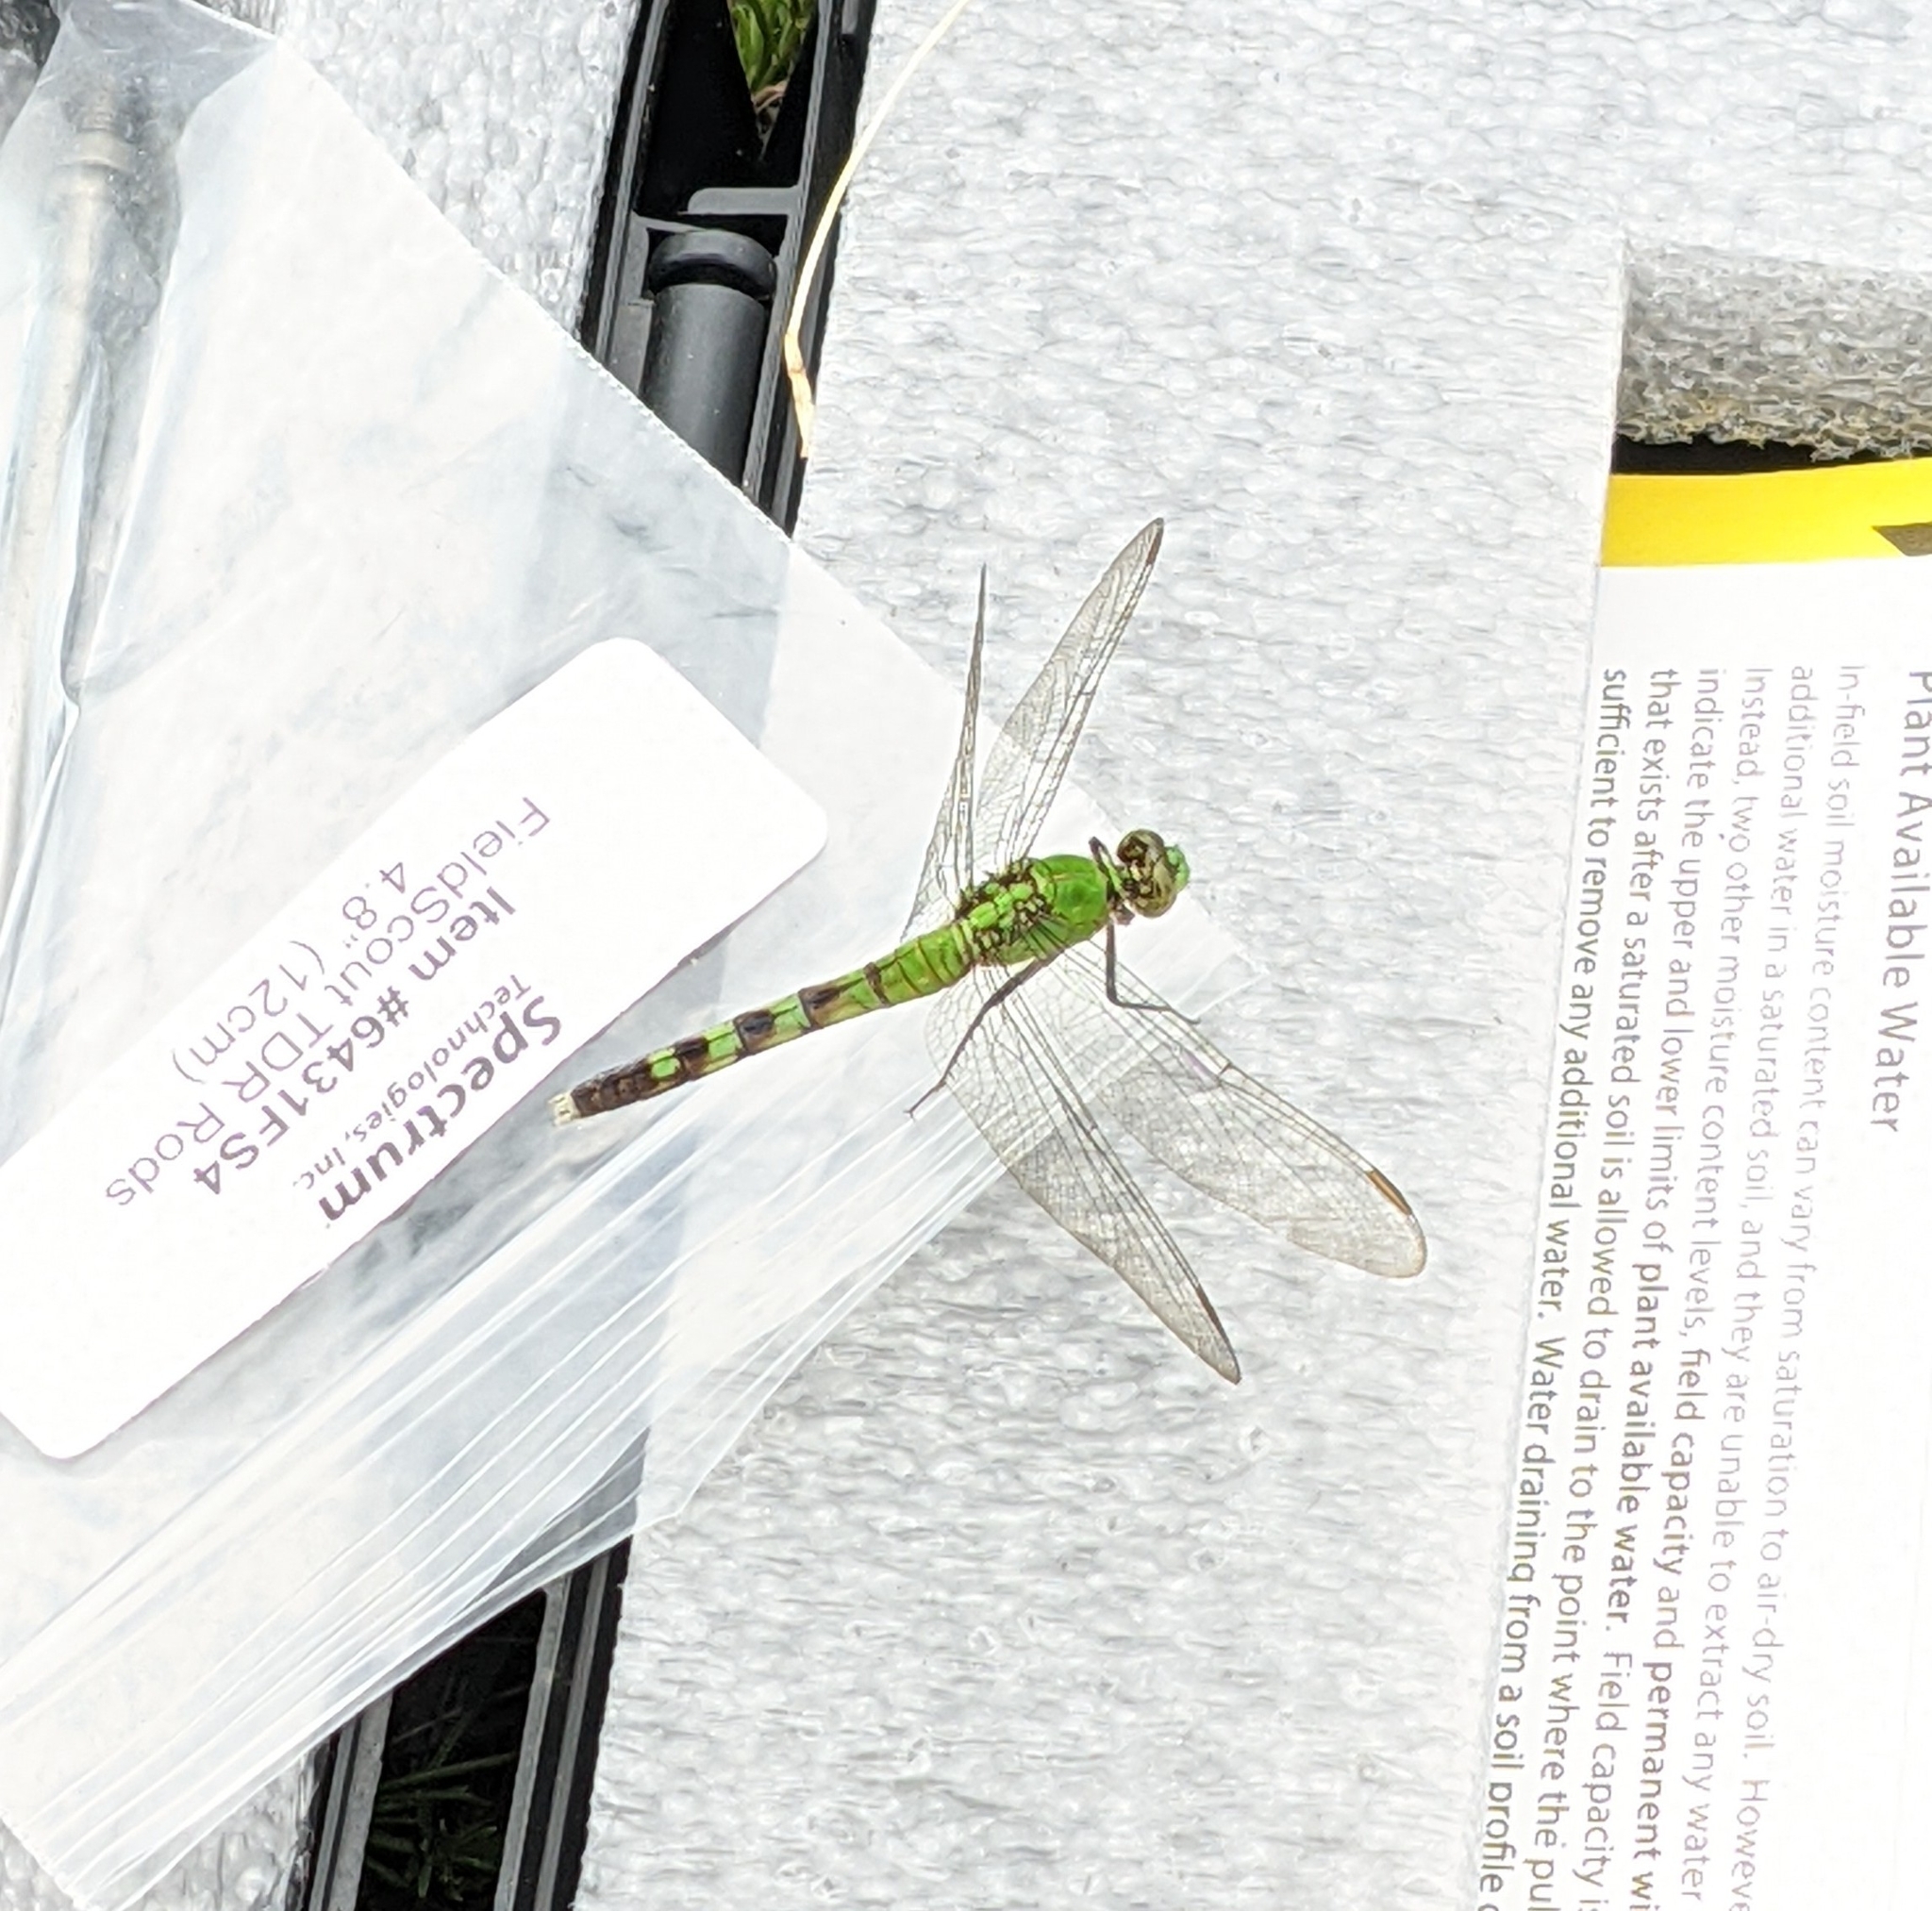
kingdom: Animalia
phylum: Arthropoda
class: Insecta
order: Odonata
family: Libellulidae
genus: Erythemis
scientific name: Erythemis simplicicollis
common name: Eastern pondhawk
